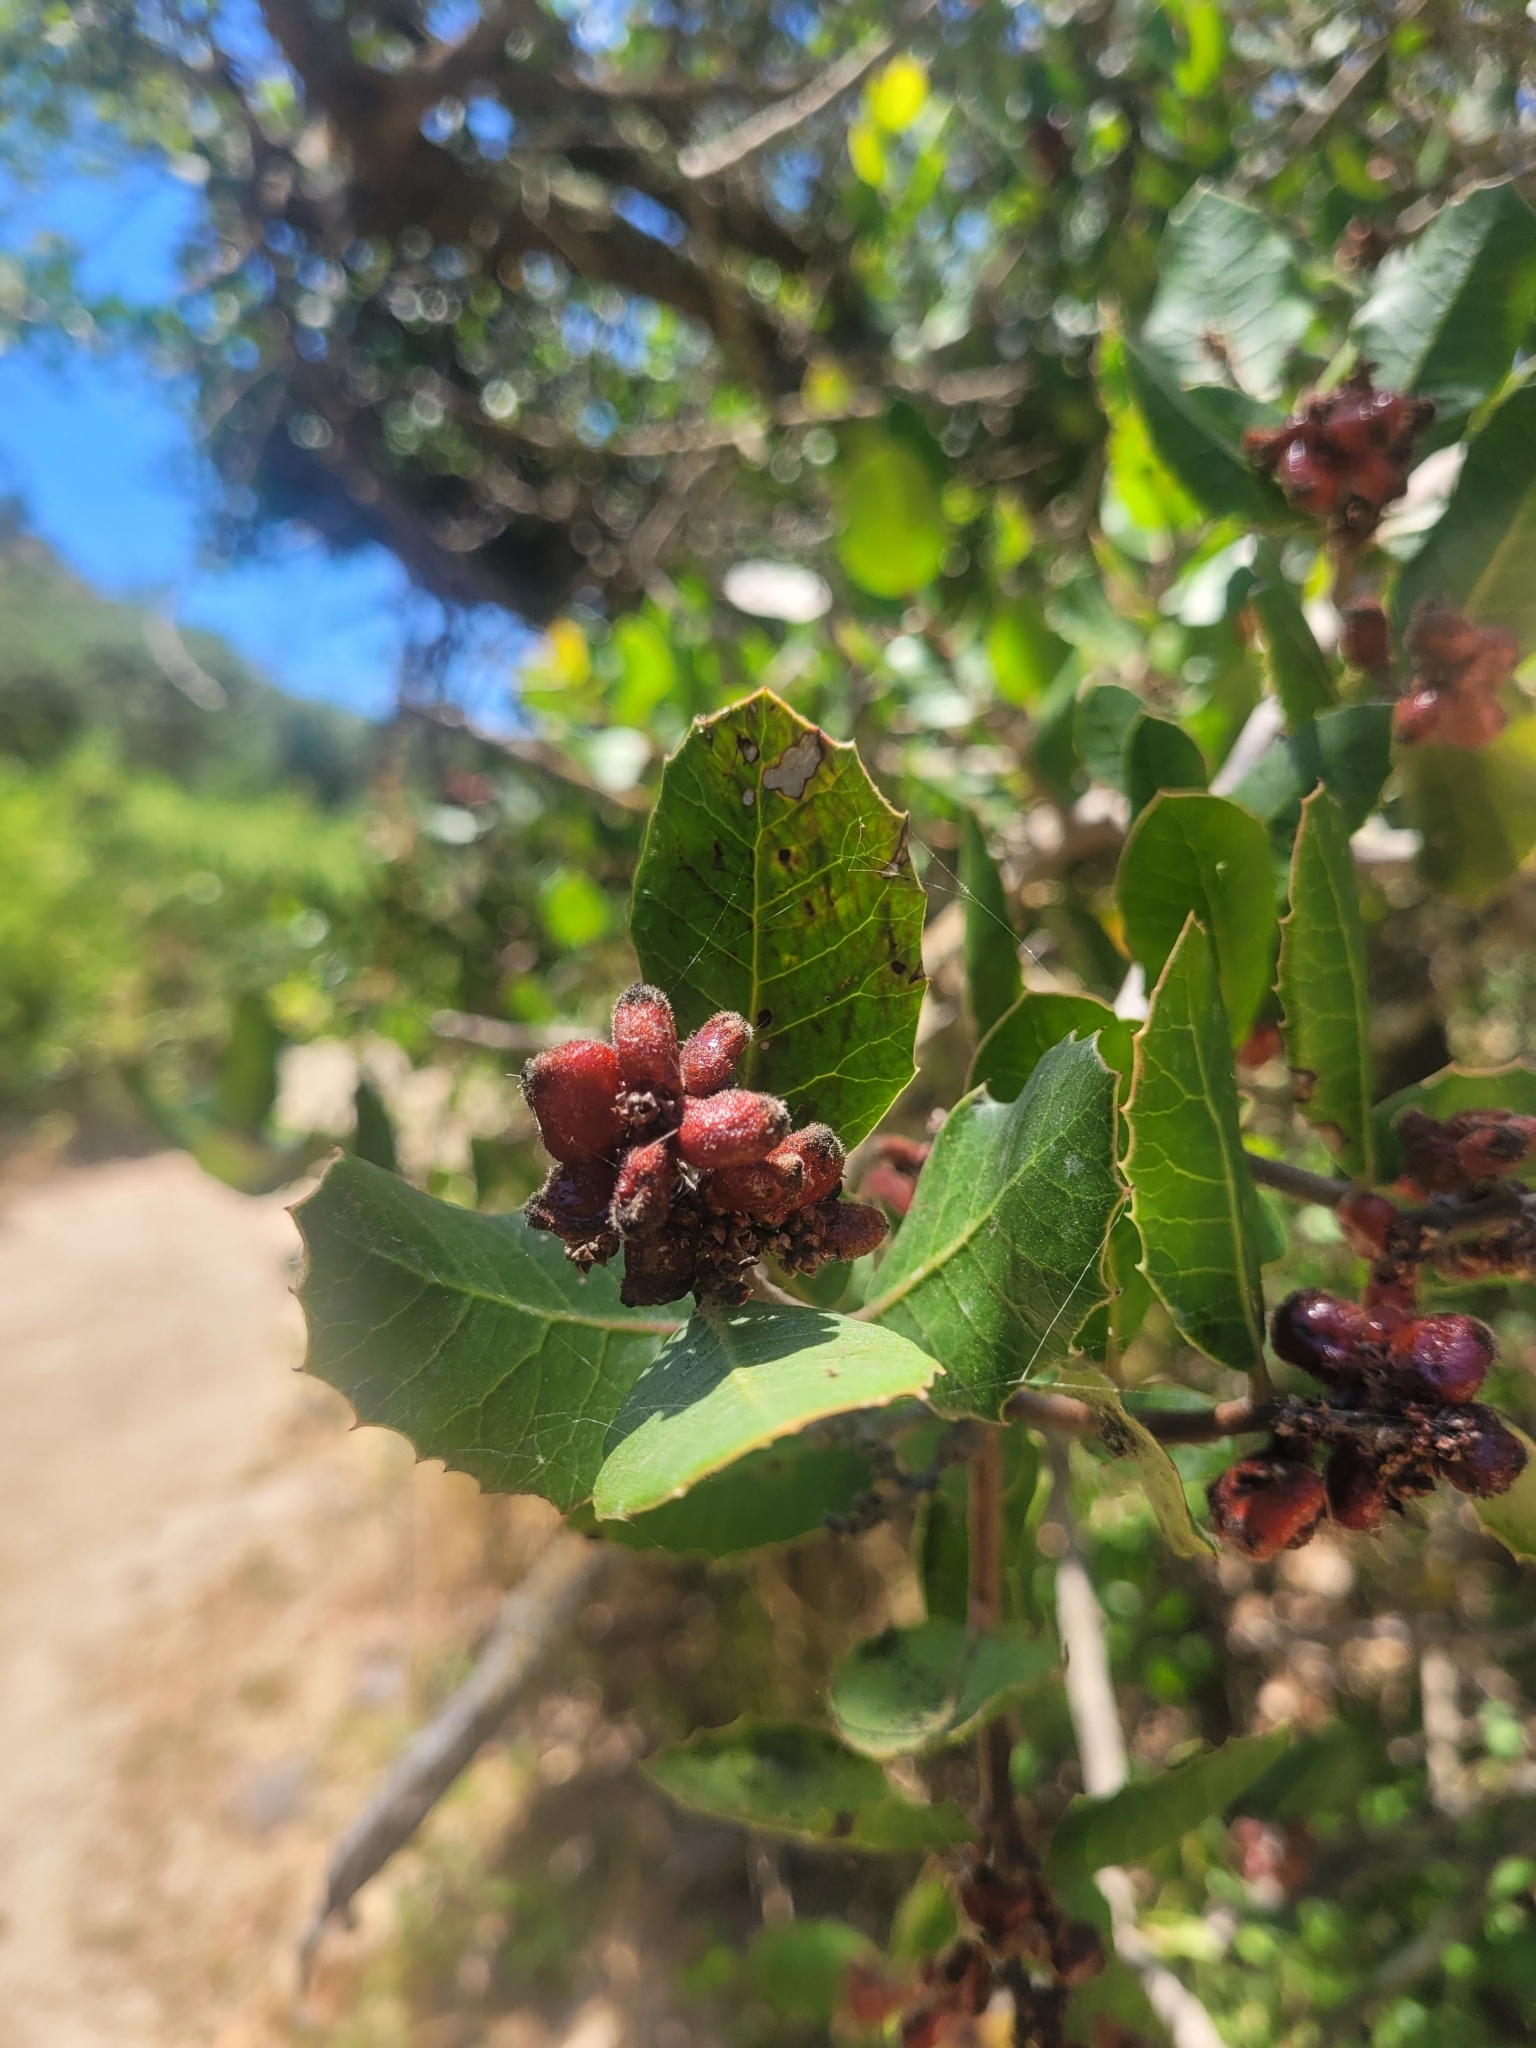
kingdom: Plantae
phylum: Tracheophyta
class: Magnoliopsida
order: Sapindales
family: Anacardiaceae
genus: Rhus
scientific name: Rhus integrifolia
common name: Lemonade sumac
